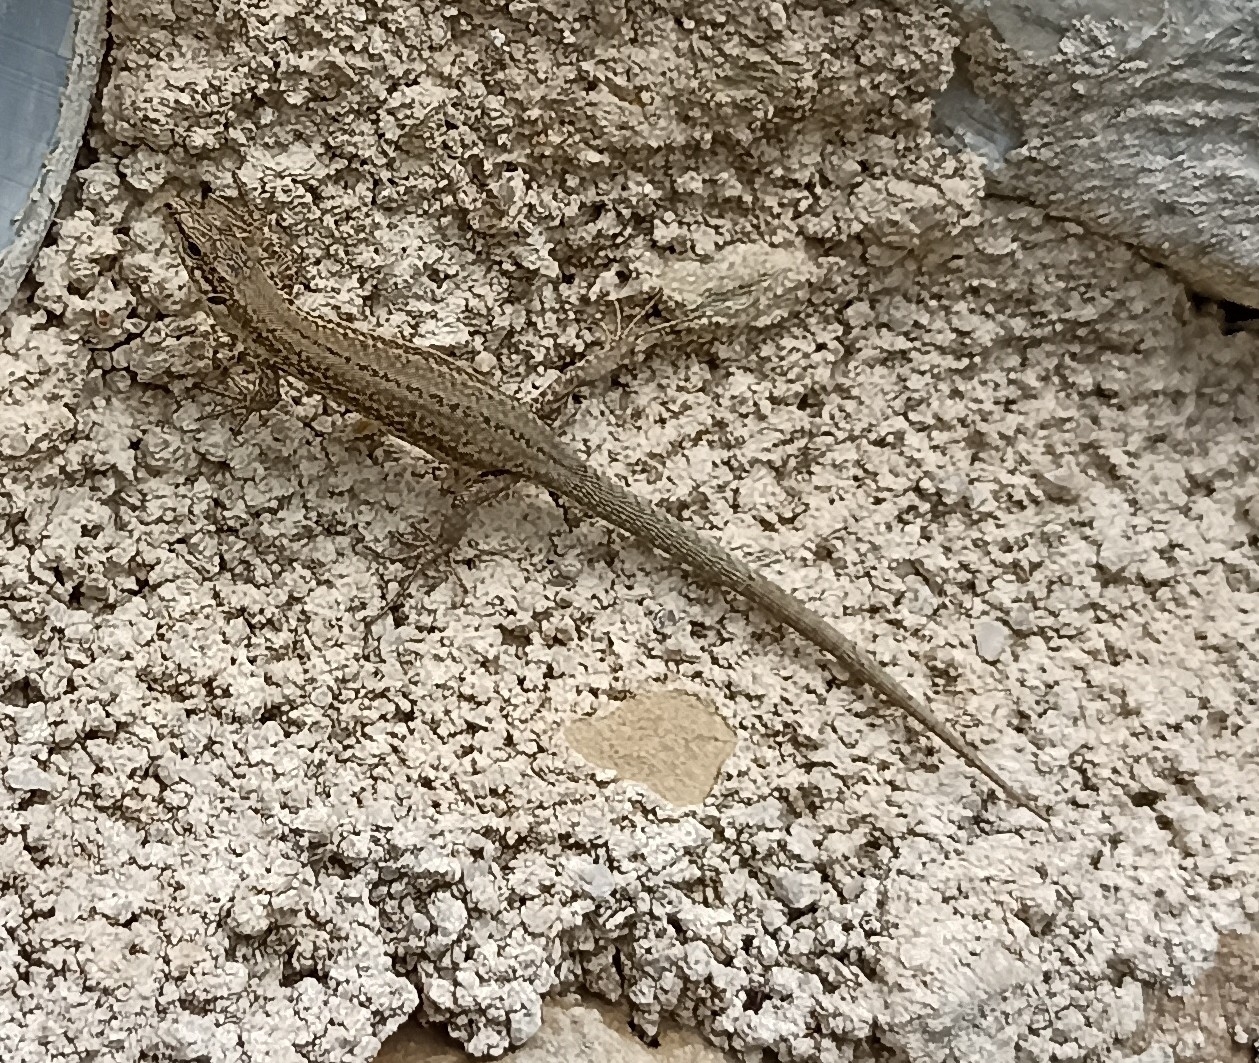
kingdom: Animalia
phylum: Chordata
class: Squamata
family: Lacertidae
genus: Podarcis
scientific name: Podarcis liolepis
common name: Catalonian wall lizard
